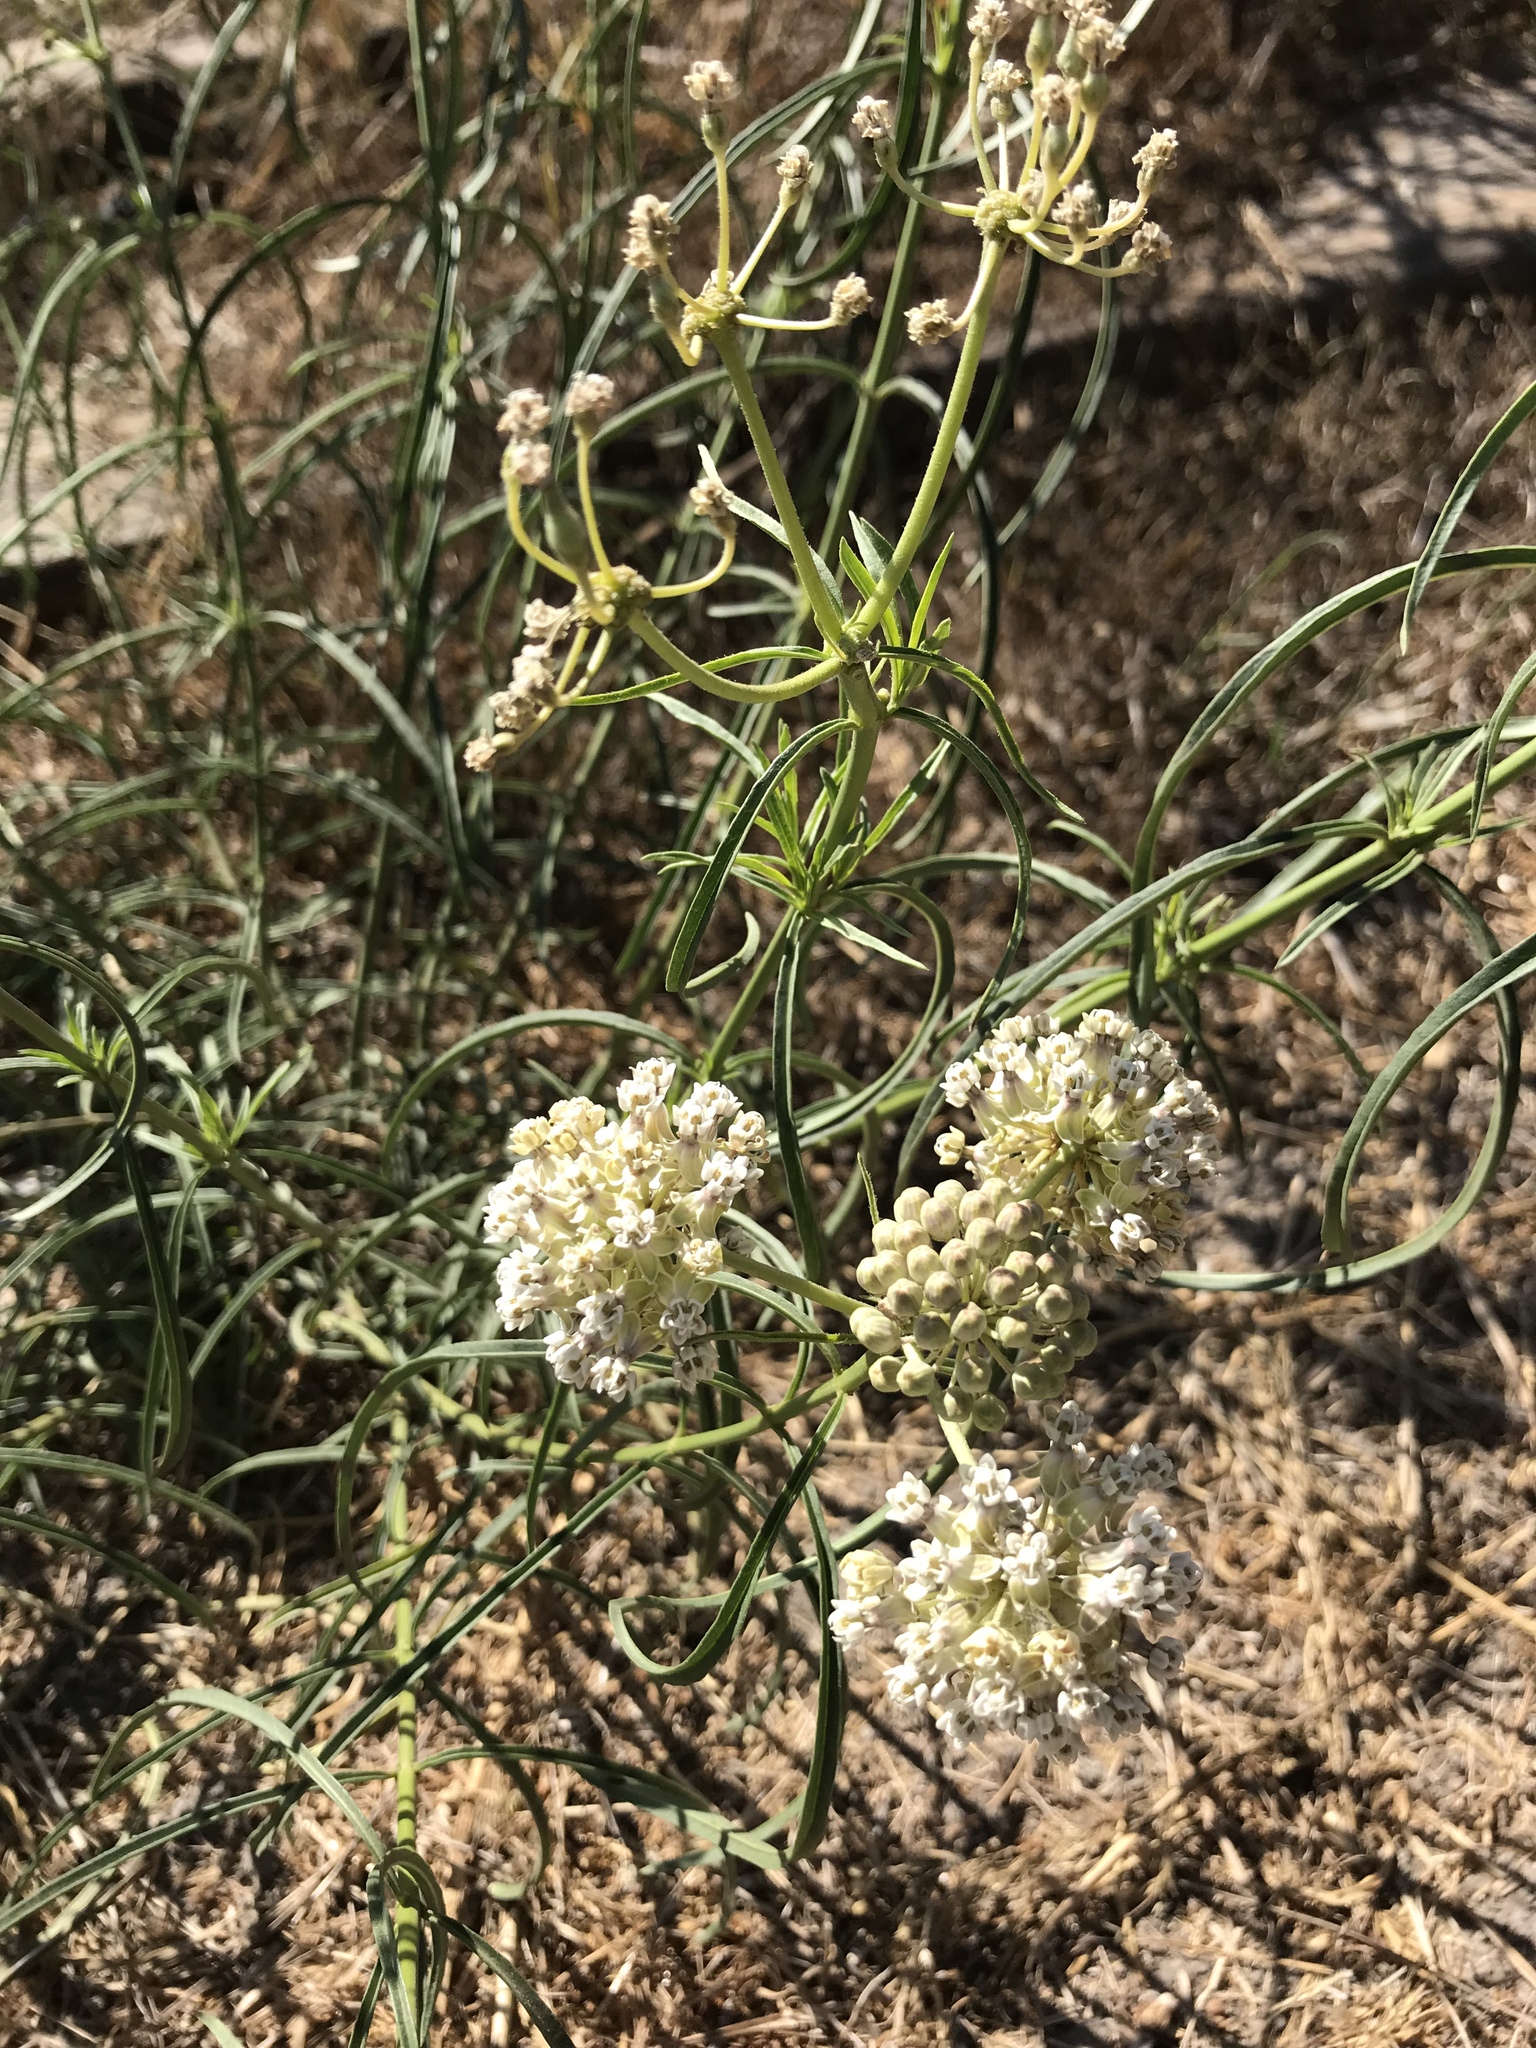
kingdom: Plantae
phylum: Tracheophyta
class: Magnoliopsida
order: Gentianales
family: Apocynaceae
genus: Asclepias
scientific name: Asclepias fascicularis
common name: Mexican milkweed
